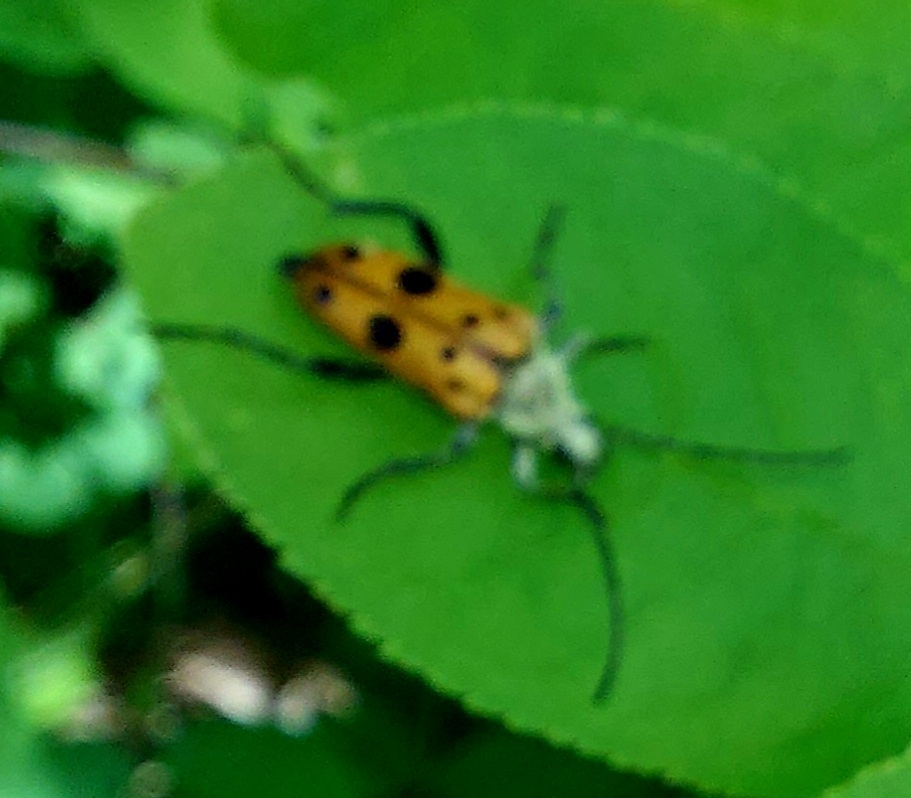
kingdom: Animalia
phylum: Arthropoda
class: Insecta
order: Coleoptera
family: Cerambycidae
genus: Oedecnema
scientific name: Oedecnema gebleri
